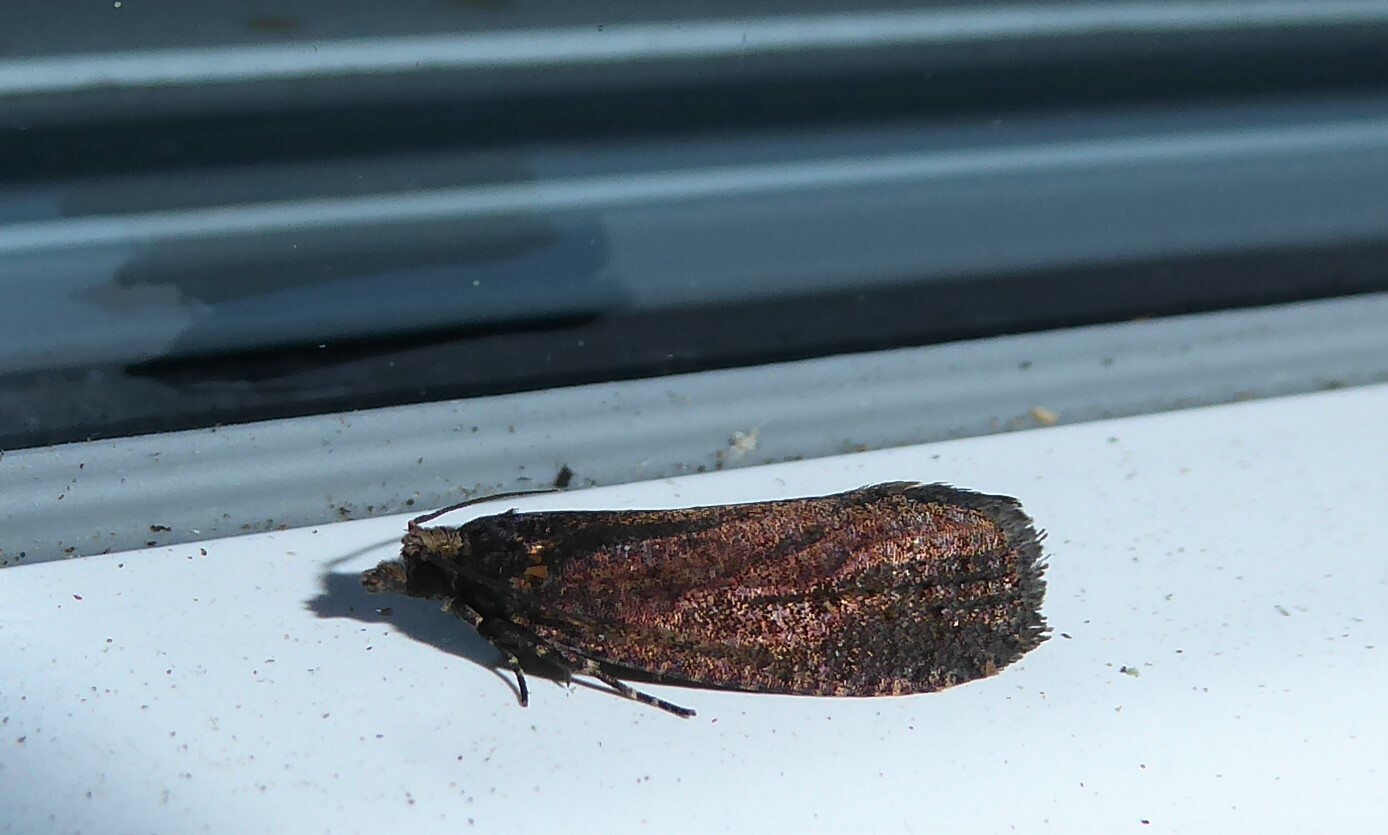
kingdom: Animalia
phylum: Arthropoda
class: Insecta
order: Lepidoptera
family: Tortricidae
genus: Cryptaspasma
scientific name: Cryptaspasma querula
